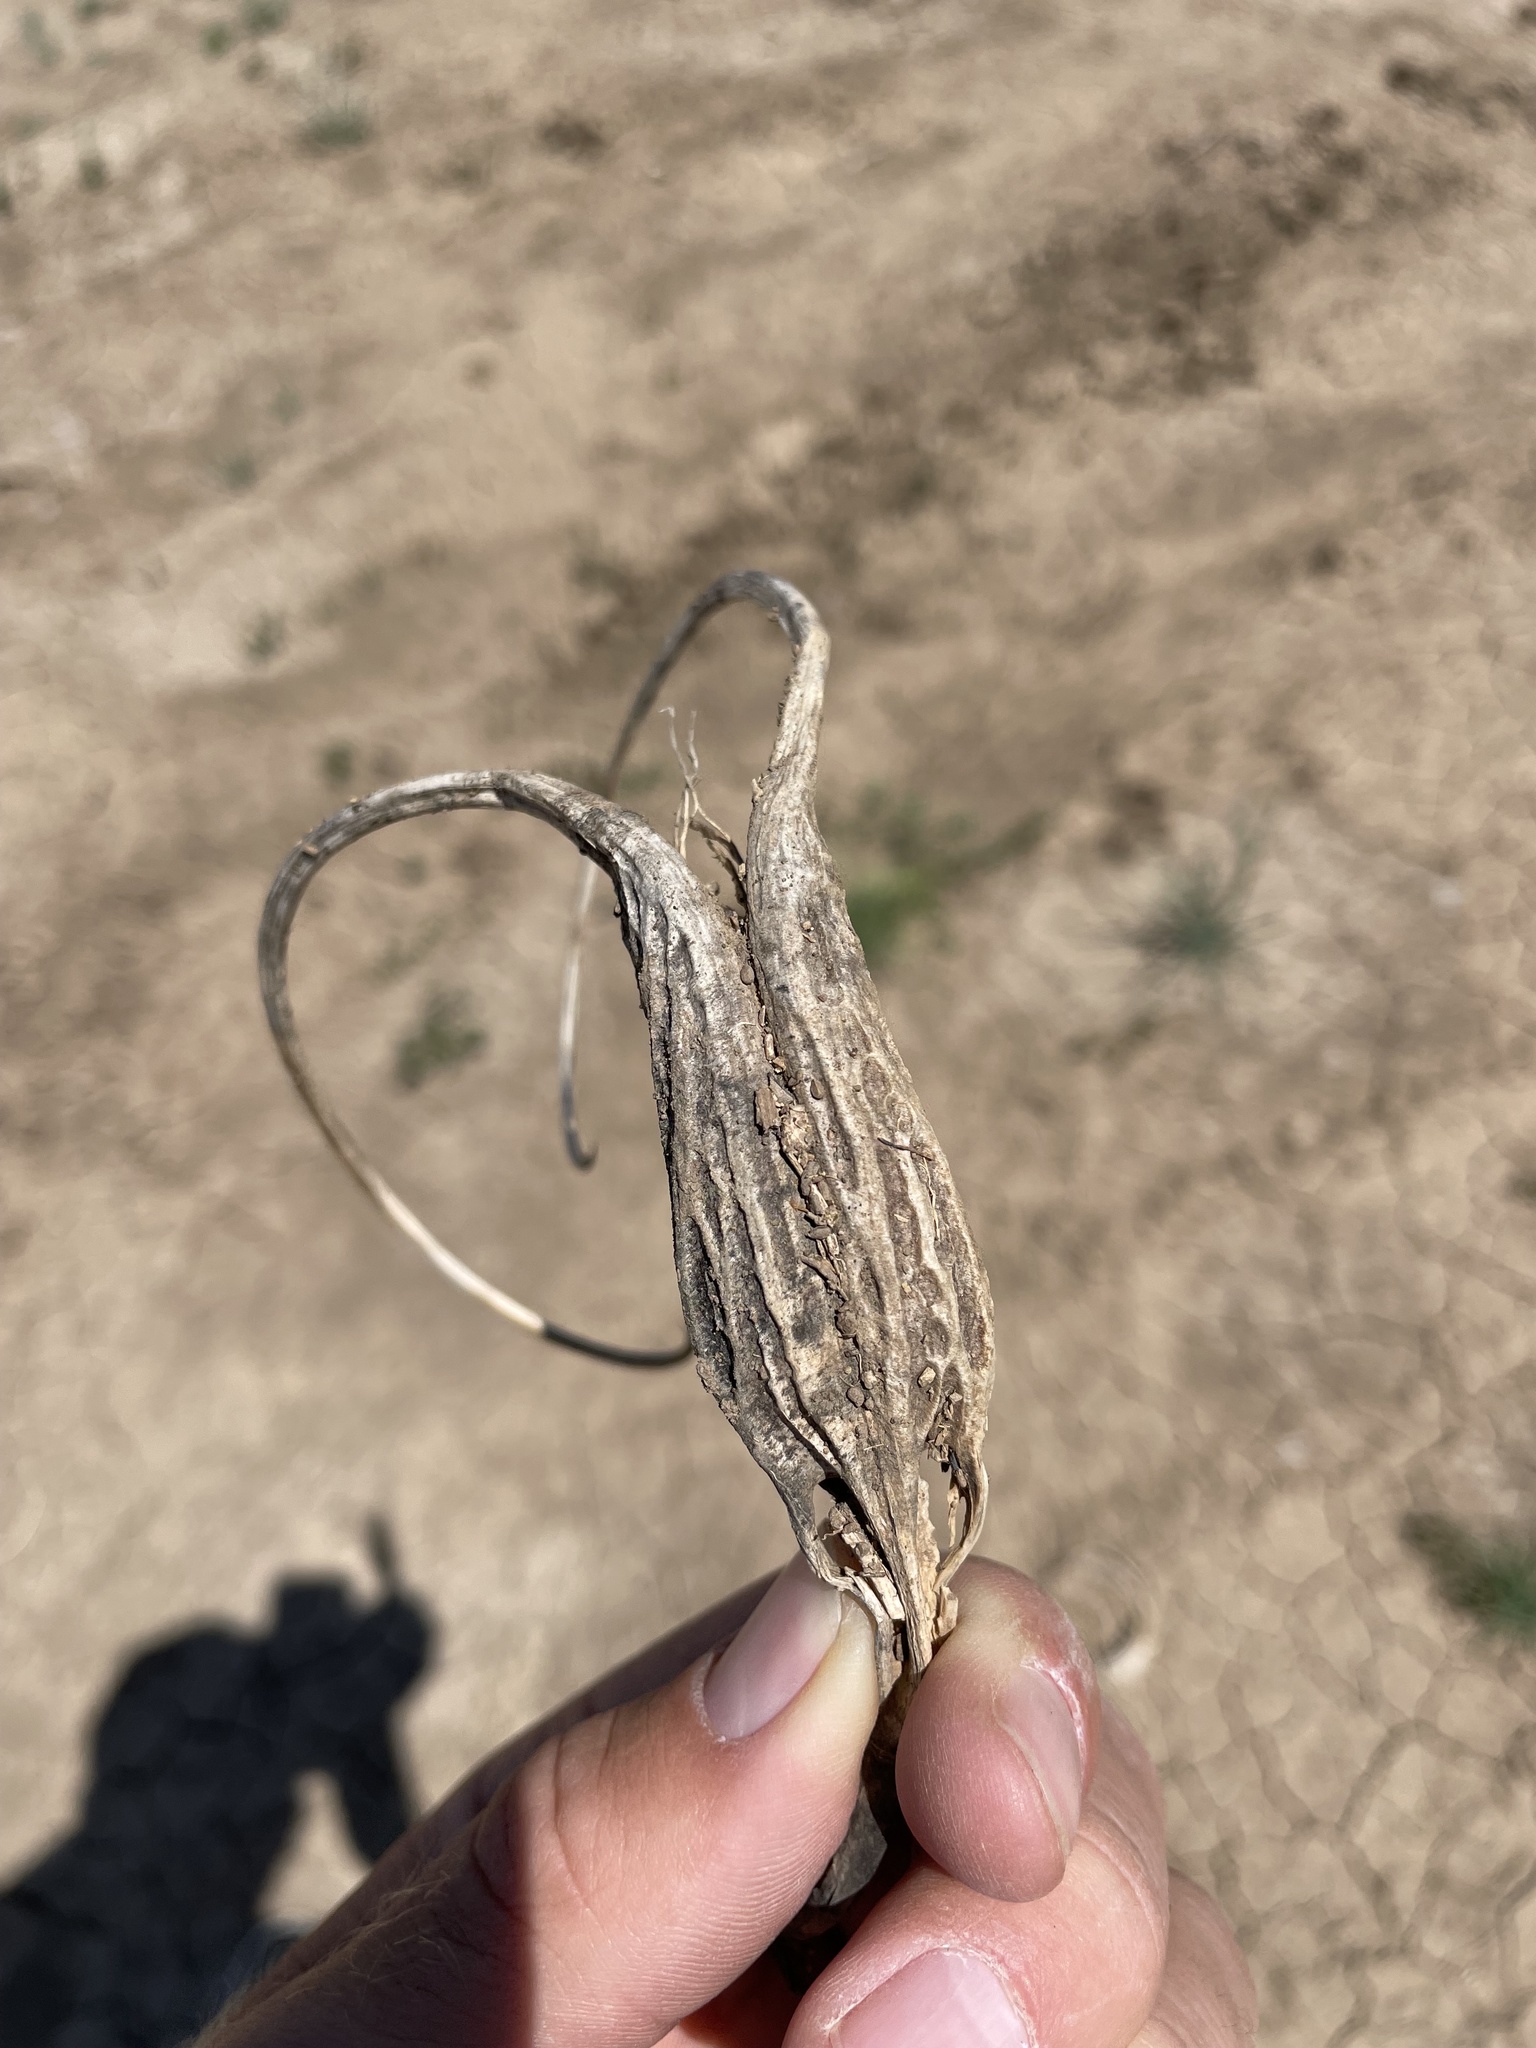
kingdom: Plantae
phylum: Tracheophyta
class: Magnoliopsida
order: Lamiales
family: Martyniaceae
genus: Proboscidea
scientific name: Proboscidea louisianica
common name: Elephant tusks
